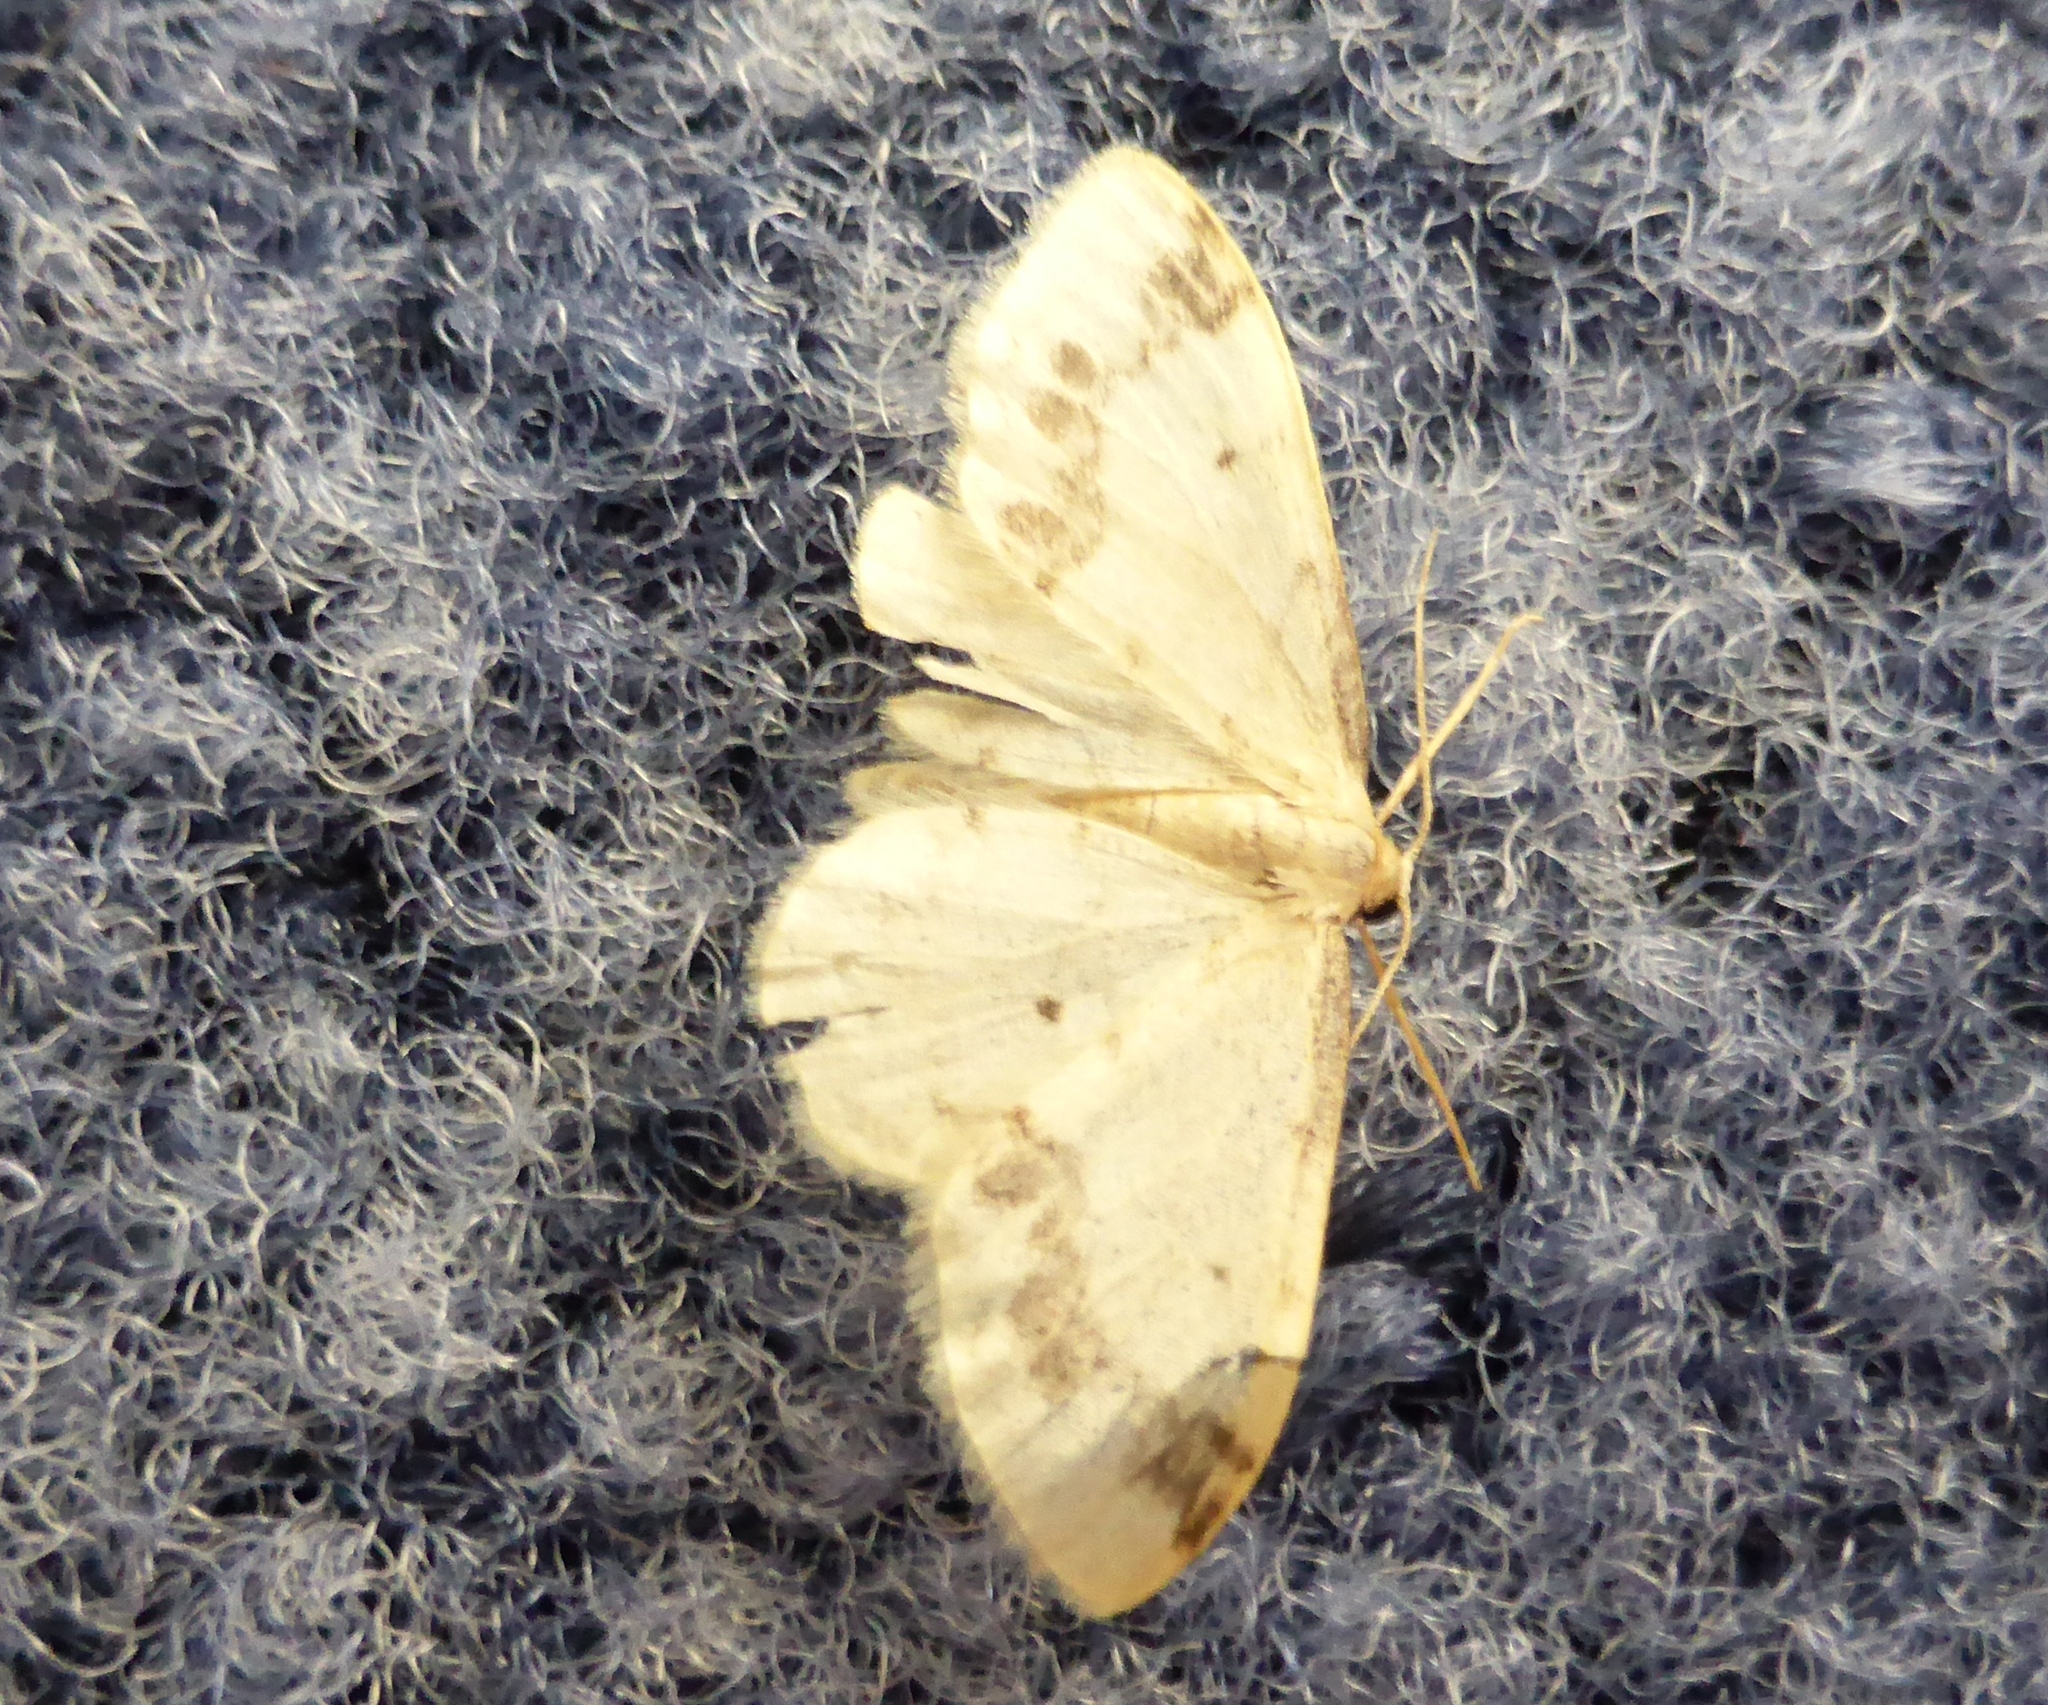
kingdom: Animalia
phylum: Arthropoda
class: Insecta
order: Lepidoptera
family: Geometridae
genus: Idaea
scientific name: Idaea trigeminata
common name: Treble brown spot
